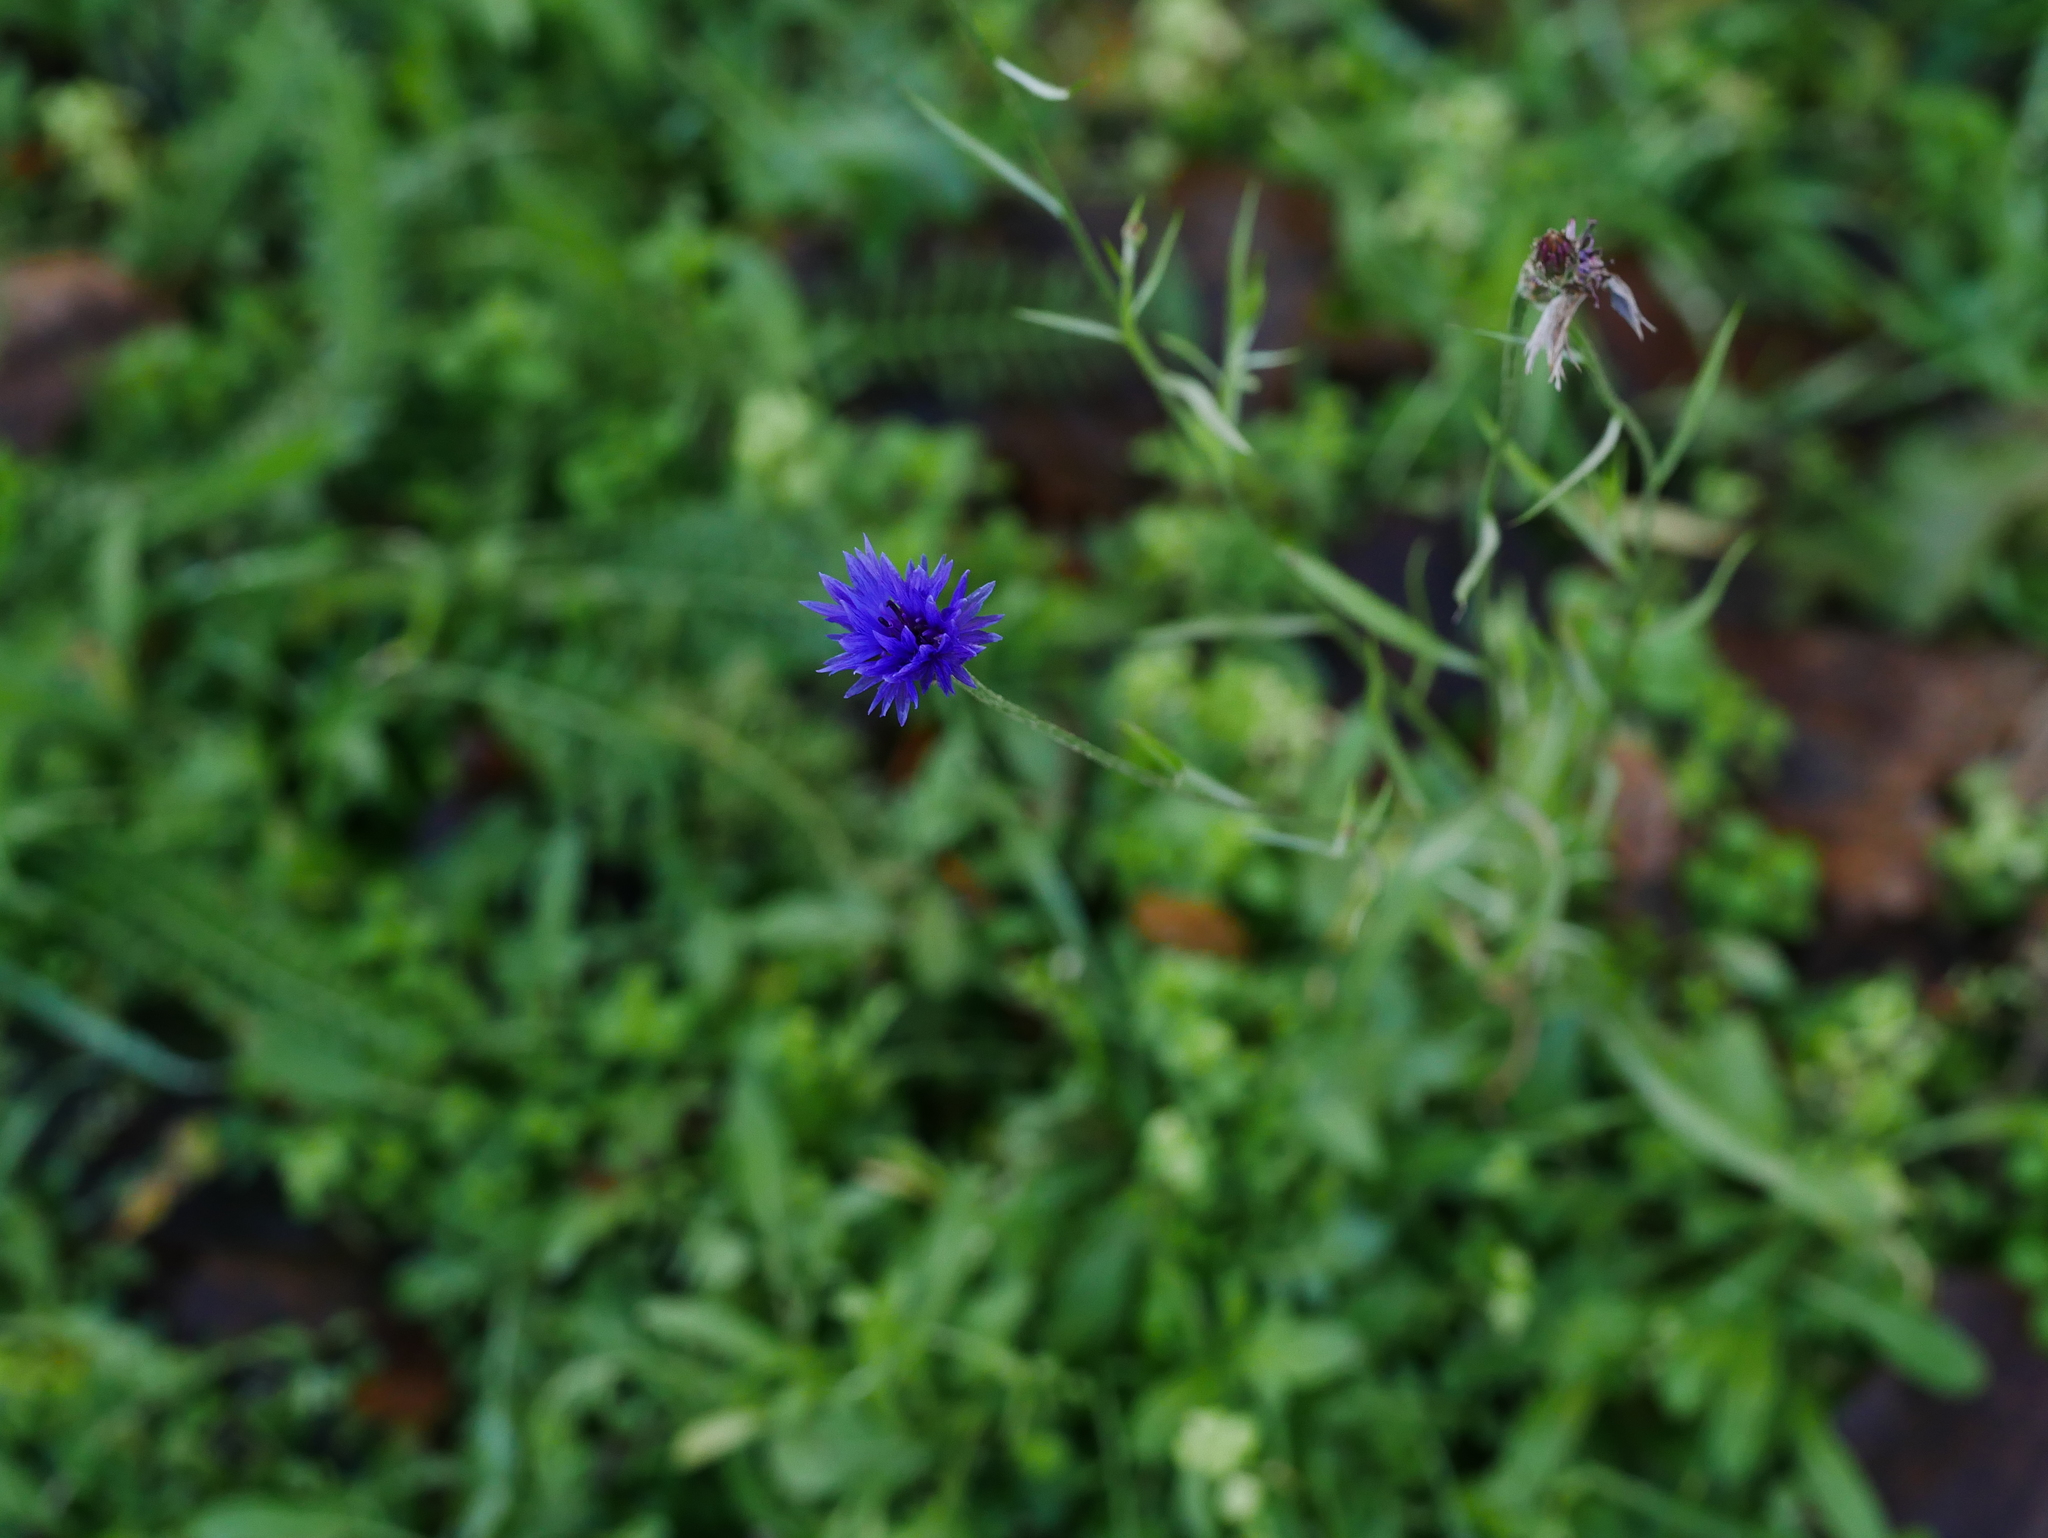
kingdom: Plantae
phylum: Tracheophyta
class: Magnoliopsida
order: Asterales
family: Asteraceae
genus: Centaurea
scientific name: Centaurea cyanus
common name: Cornflower
